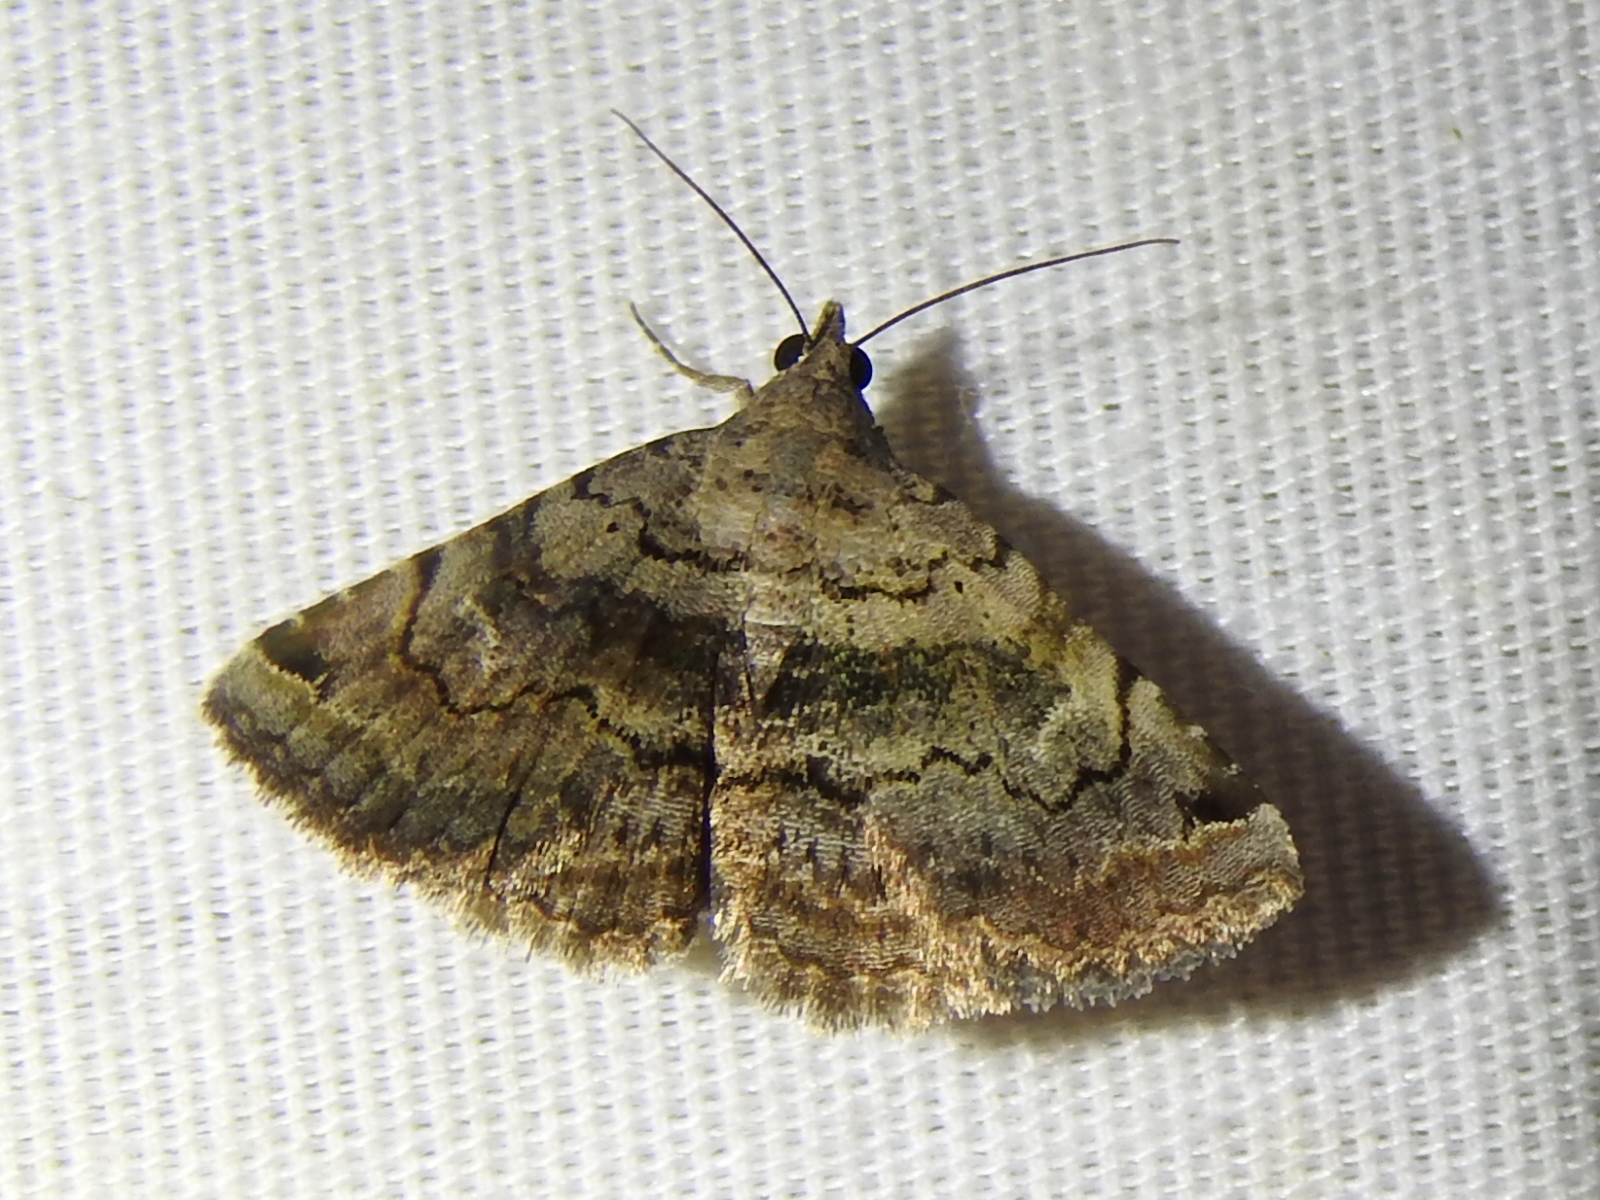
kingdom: Animalia
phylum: Arthropoda
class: Insecta
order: Lepidoptera
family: Erebidae
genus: Toxonprucha
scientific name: Toxonprucha crudelis
